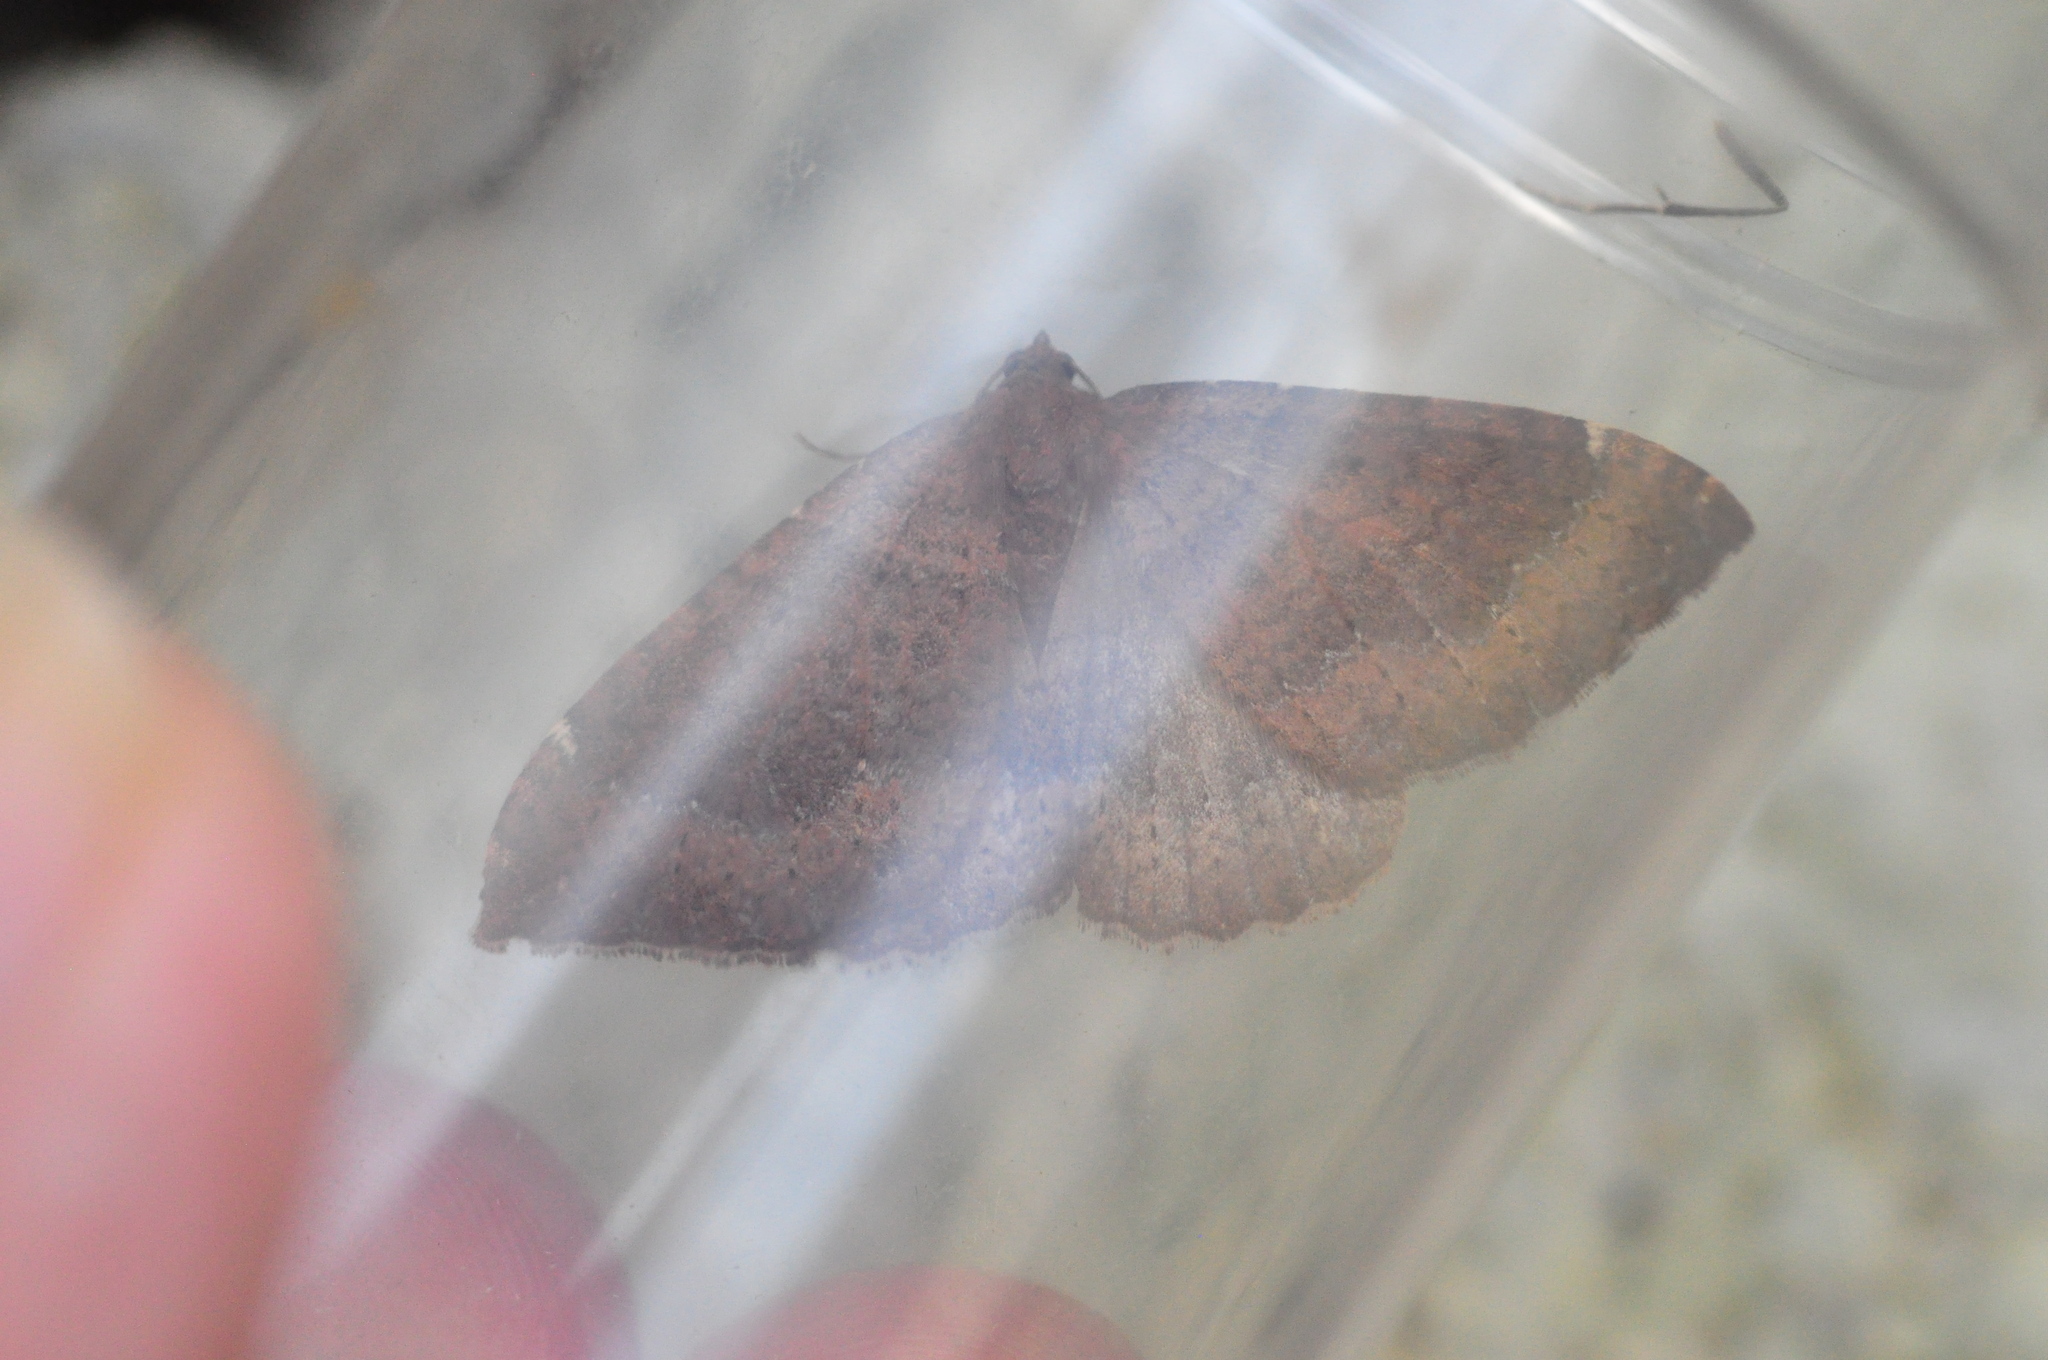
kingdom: Animalia
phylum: Arthropoda
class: Insecta
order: Lepidoptera
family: Geometridae
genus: Herbulotina
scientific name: Herbulotina grandis
